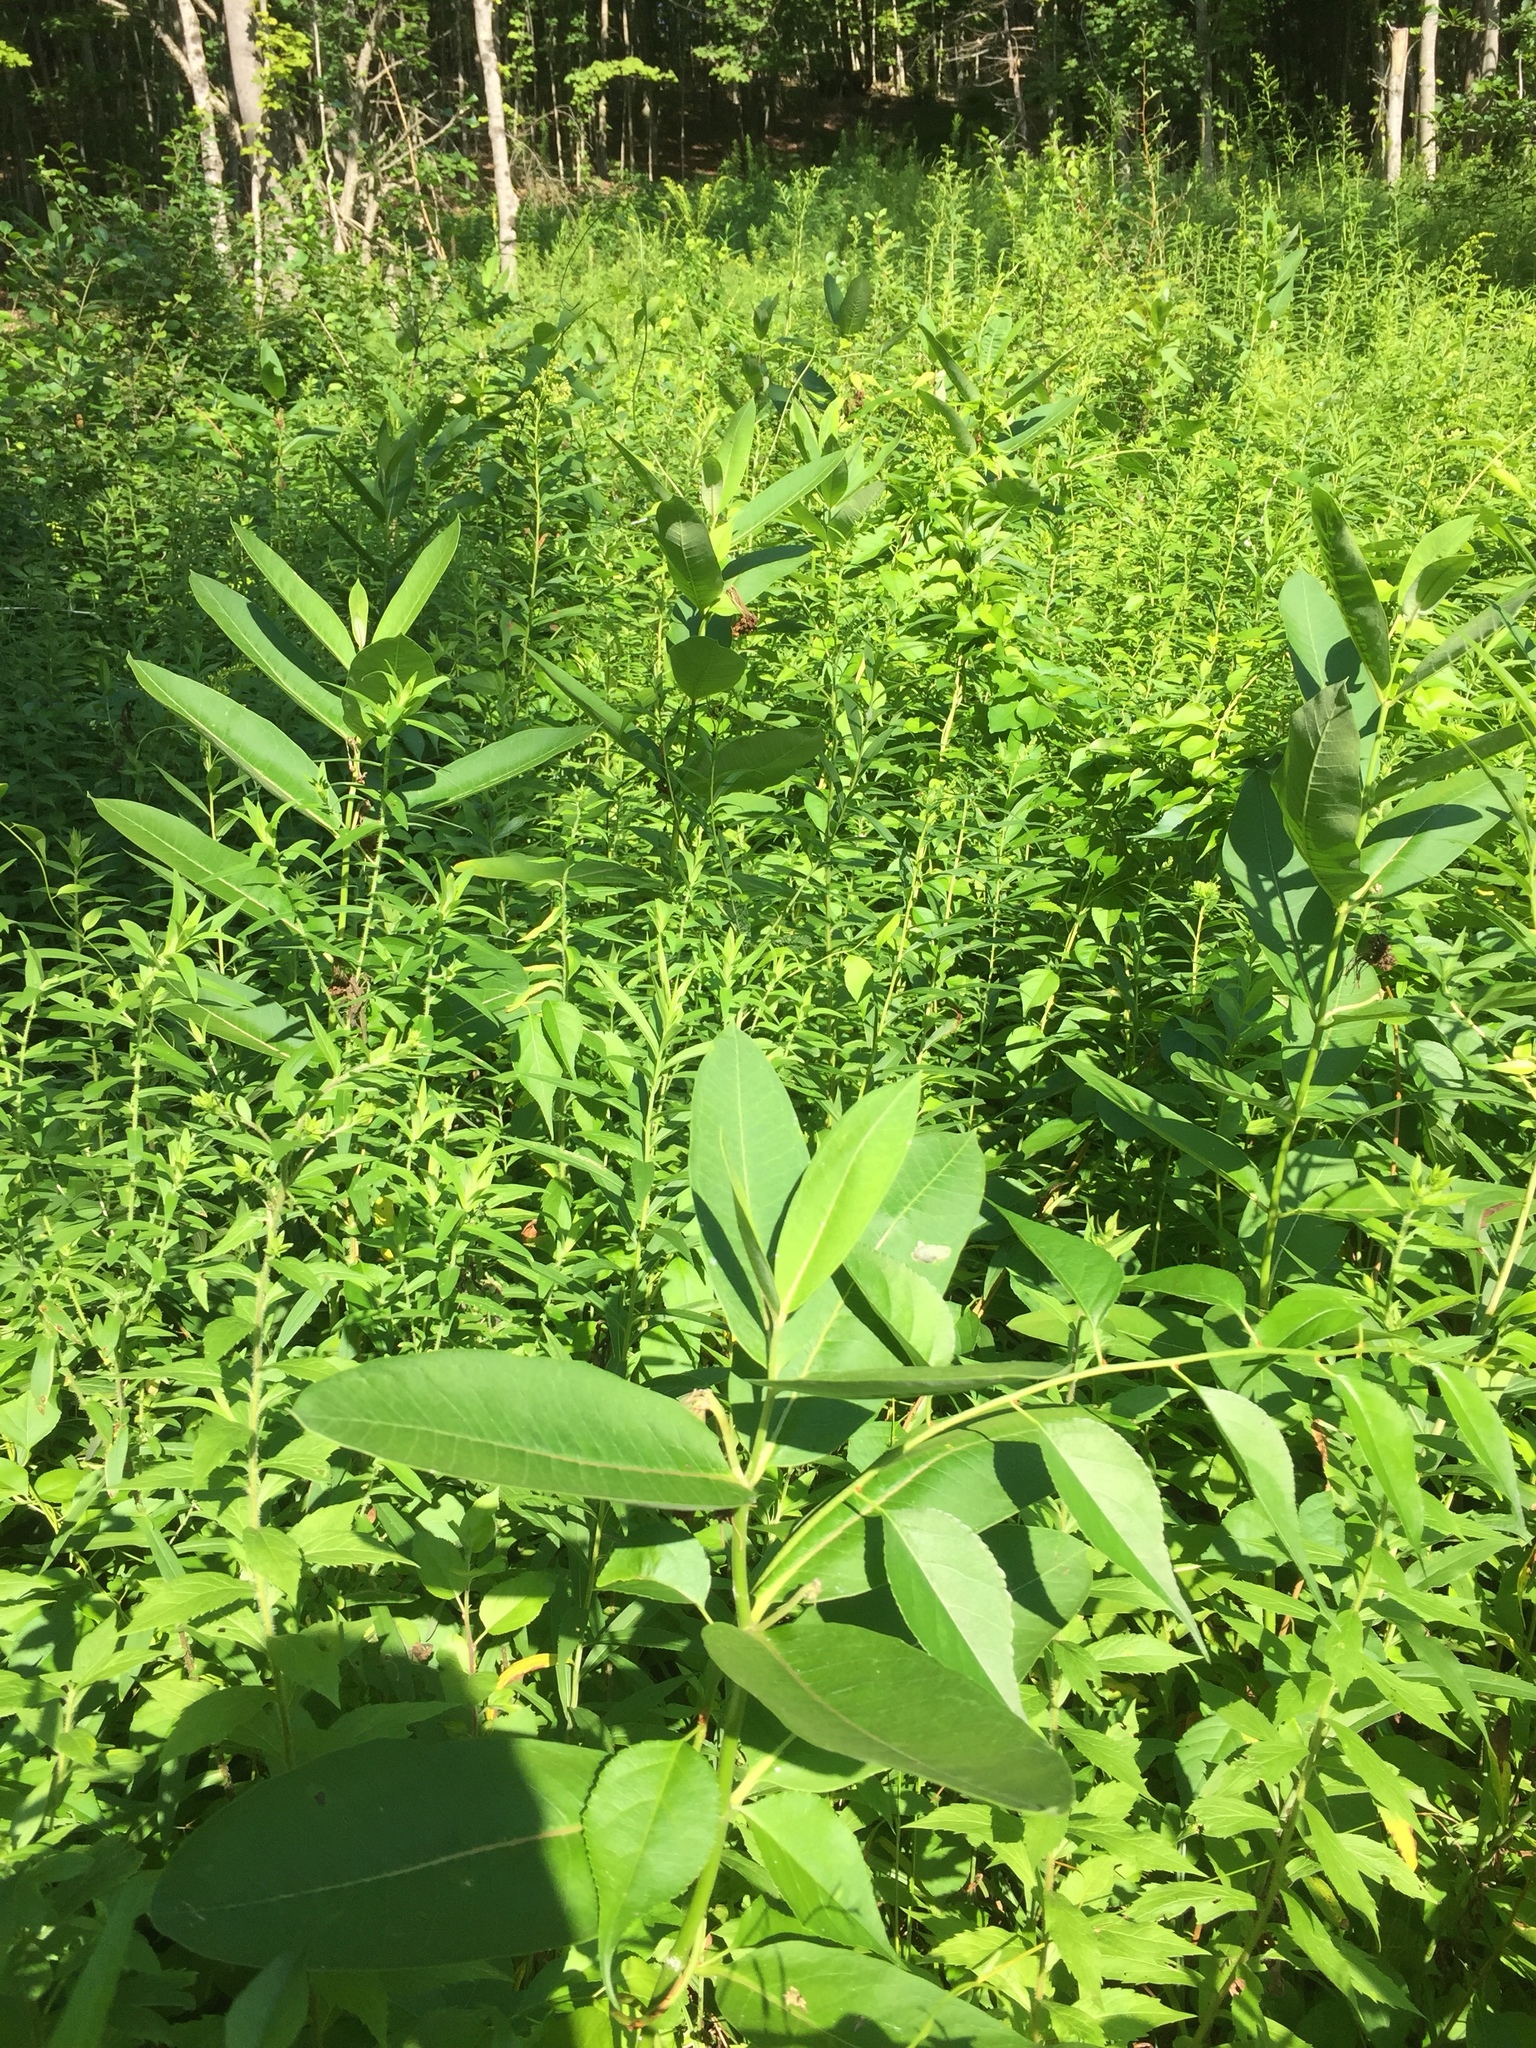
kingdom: Plantae
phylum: Tracheophyta
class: Magnoliopsida
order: Gentianales
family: Apocynaceae
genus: Asclepias
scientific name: Asclepias syriaca
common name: Common milkweed
